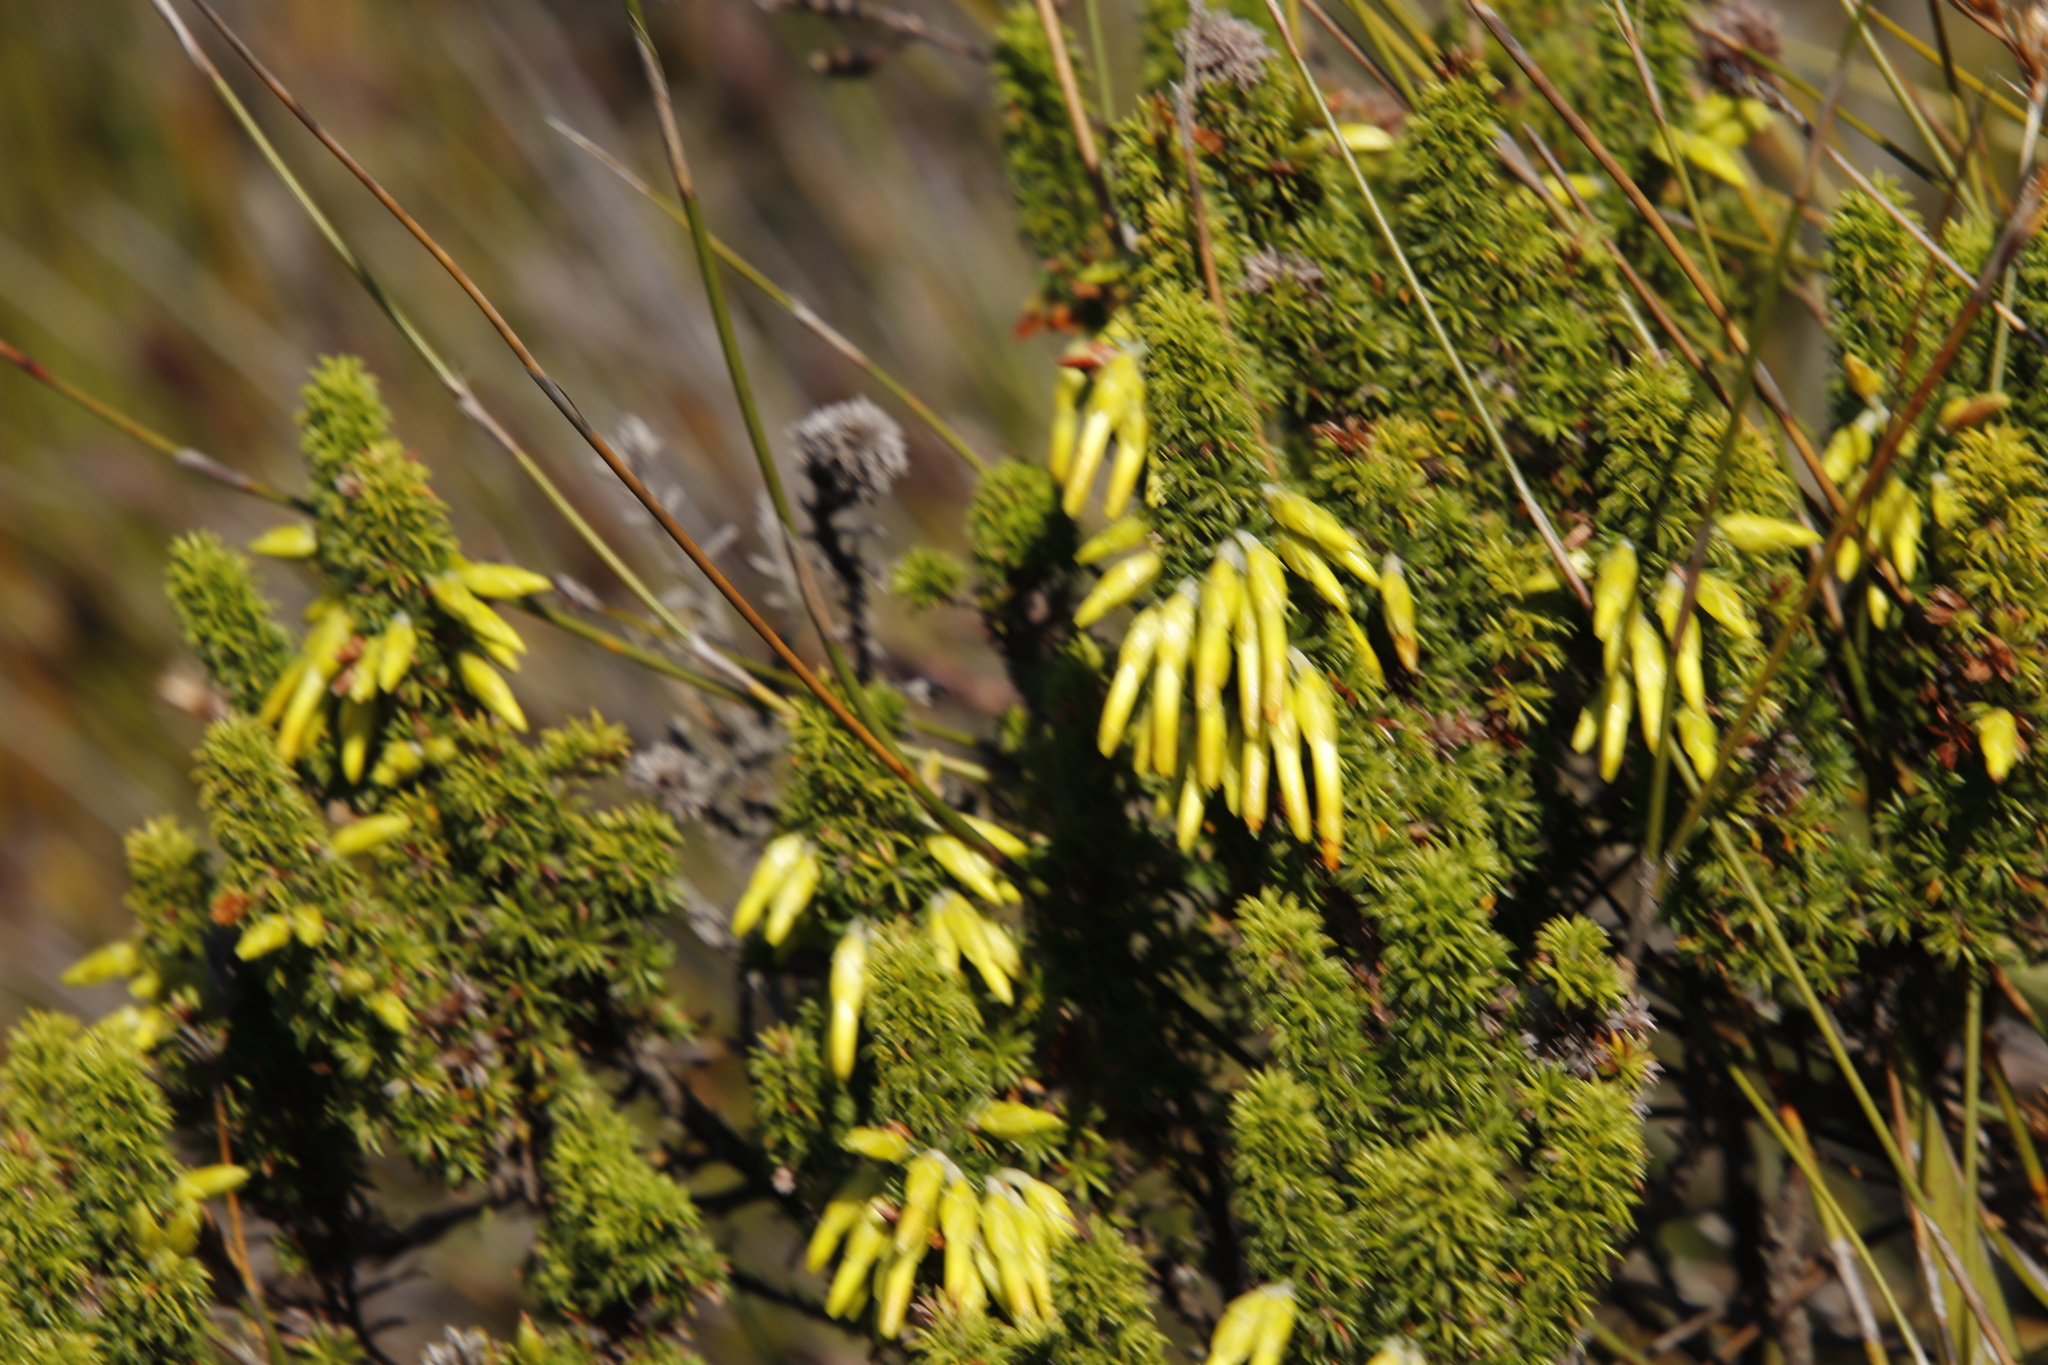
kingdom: Plantae
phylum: Tracheophyta
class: Magnoliopsida
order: Ericales
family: Ericaceae
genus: Erica
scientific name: Erica coccinea
